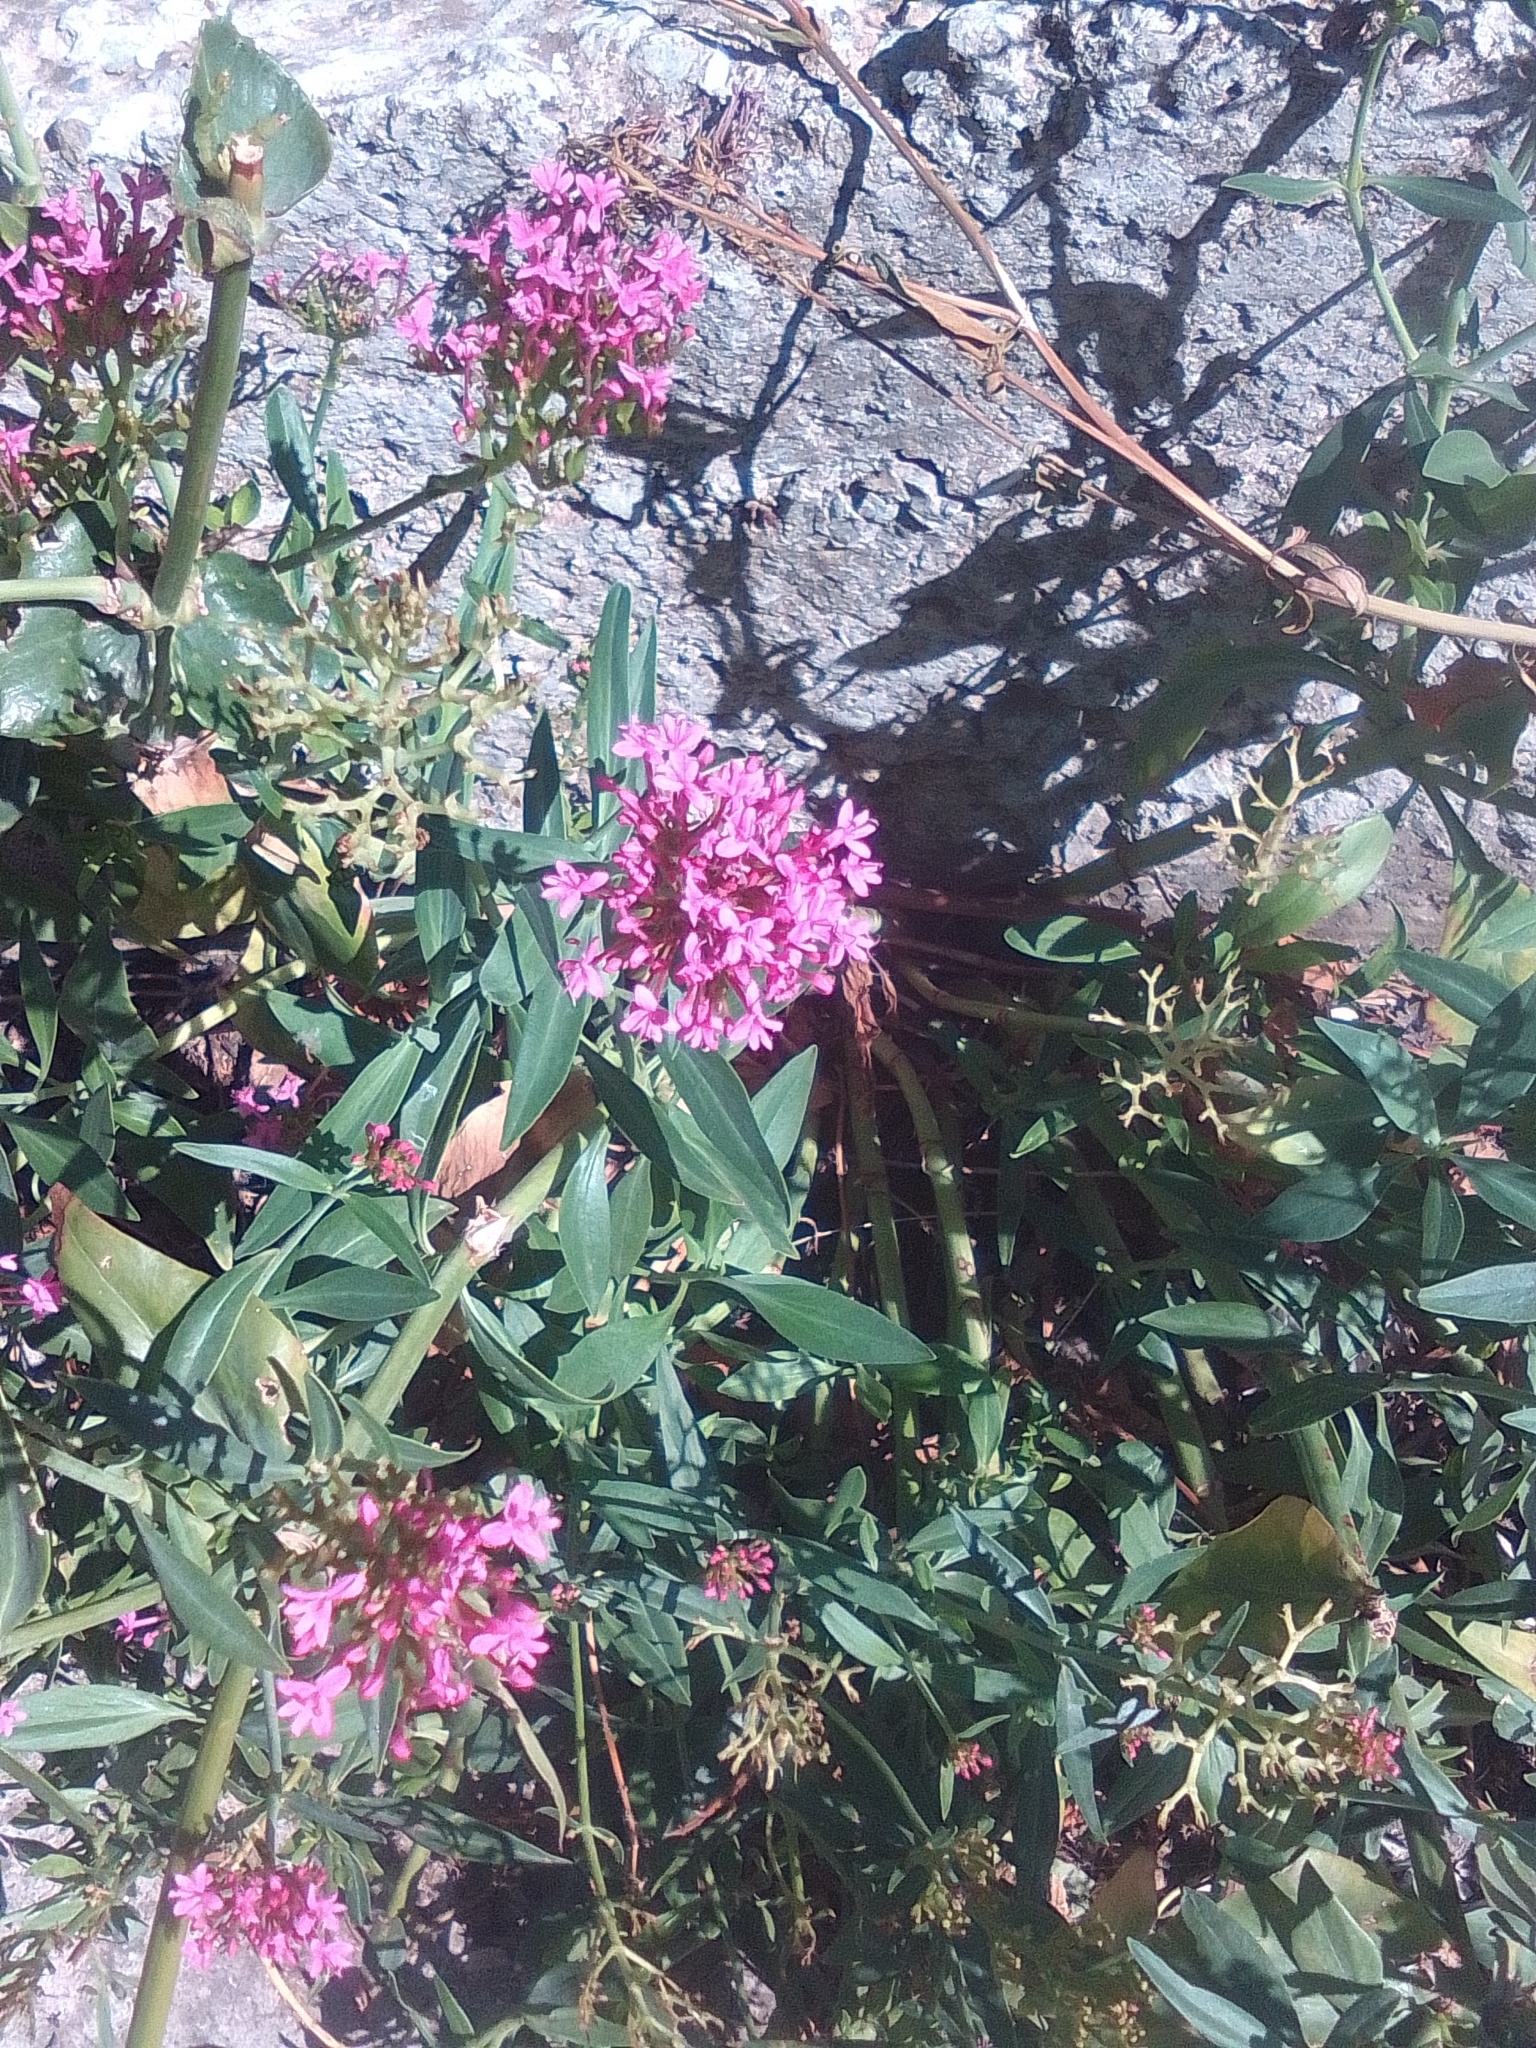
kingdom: Plantae
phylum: Tracheophyta
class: Magnoliopsida
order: Dipsacales
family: Caprifoliaceae
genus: Centranthus
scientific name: Centranthus ruber
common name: Red valerian
